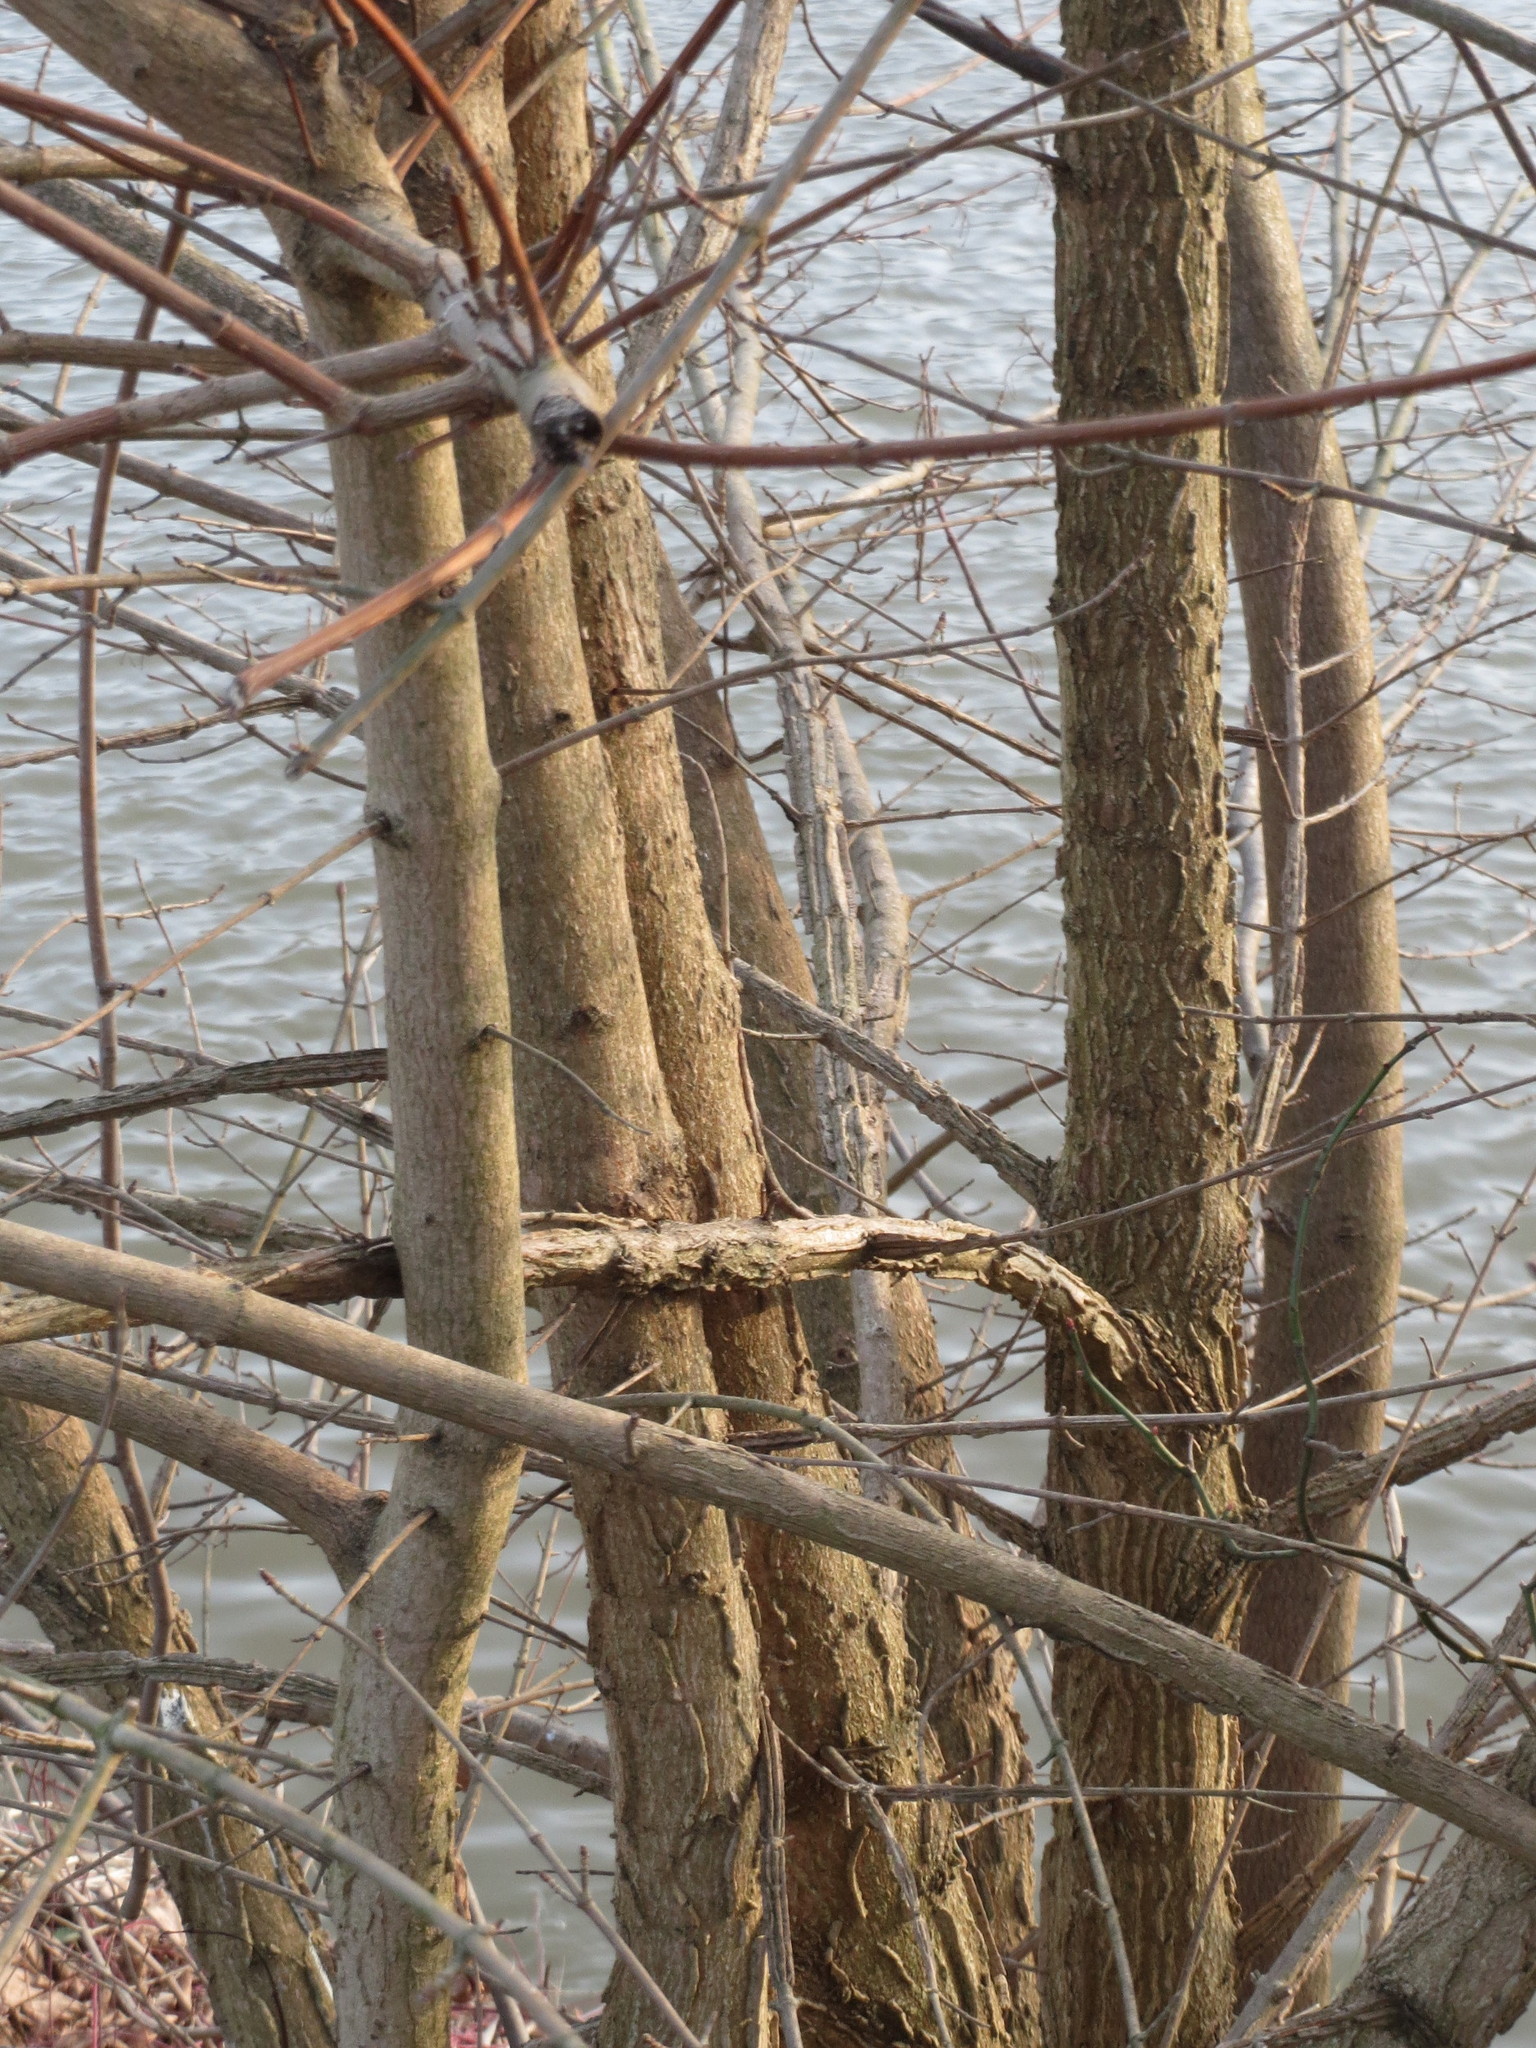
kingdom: Plantae
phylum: Tracheophyta
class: Magnoliopsida
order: Sapindales
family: Sapindaceae
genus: Acer
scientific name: Acer campestre
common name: Field maple
